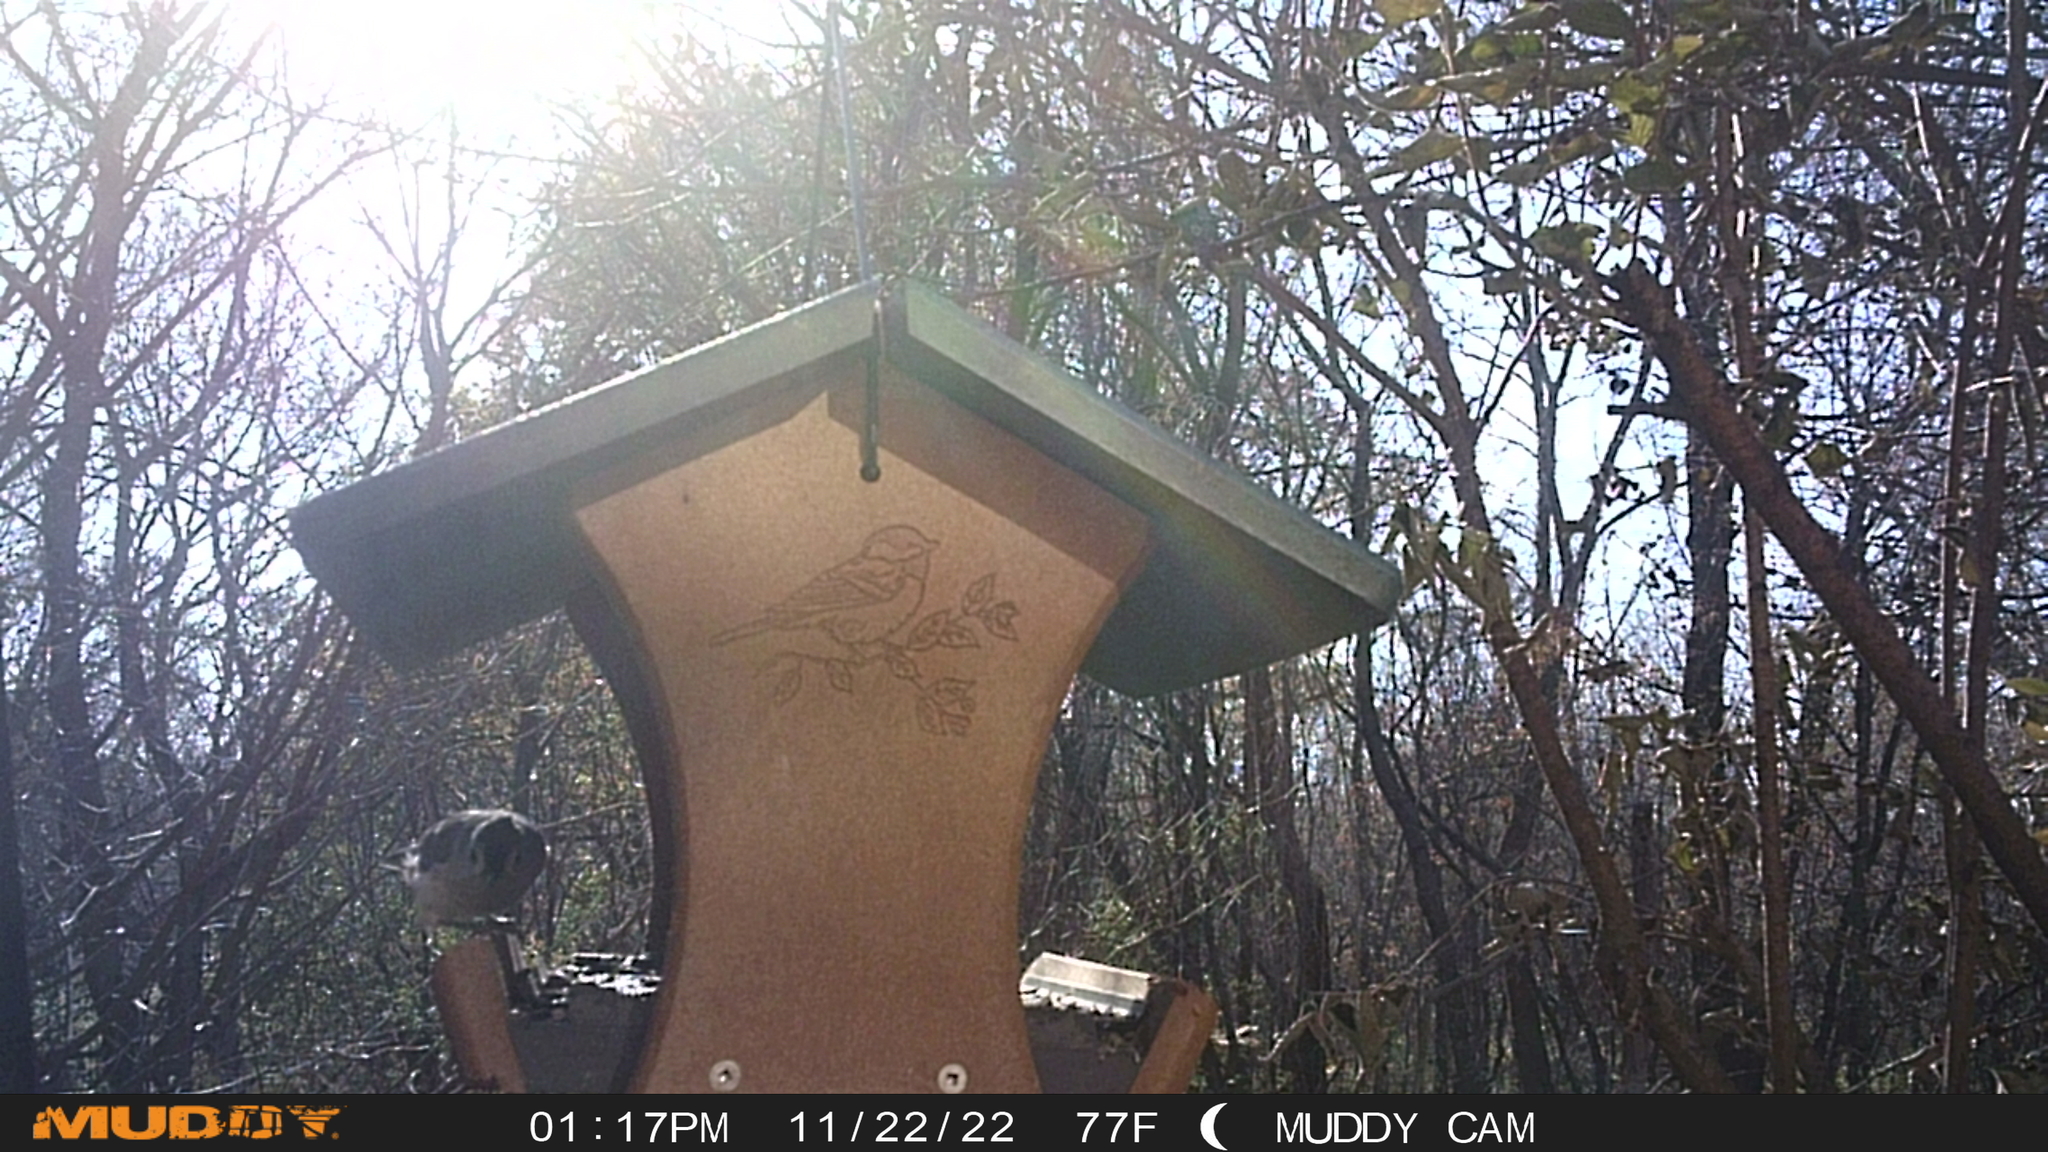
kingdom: Animalia
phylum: Chordata
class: Aves
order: Passeriformes
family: Paridae
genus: Baeolophus
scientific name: Baeolophus bicolor
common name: Tufted titmouse
